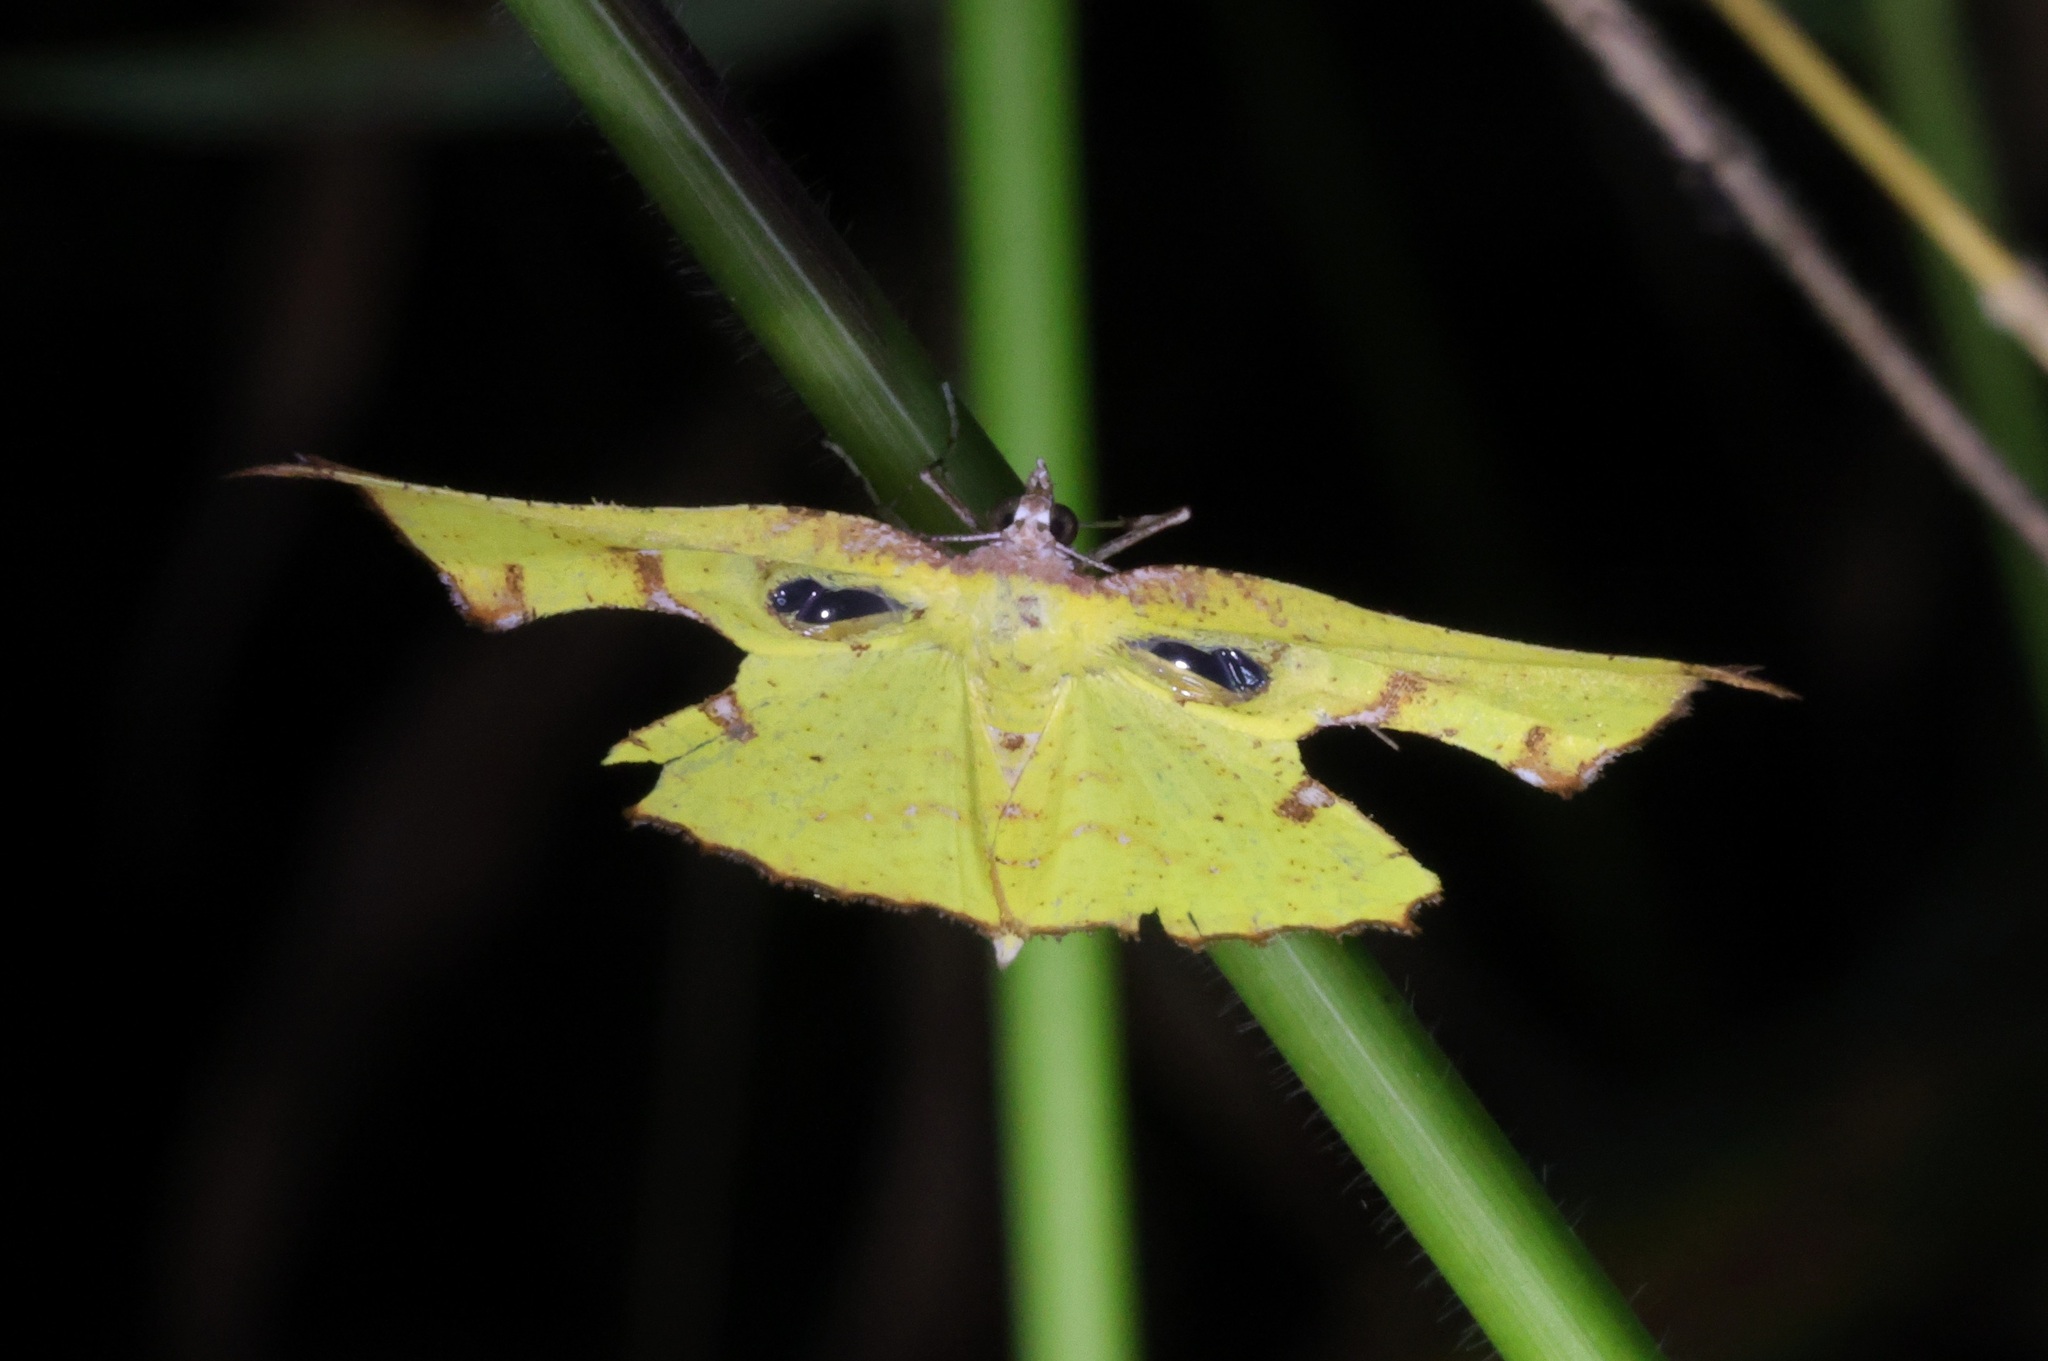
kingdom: Animalia
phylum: Arthropoda
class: Insecta
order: Lepidoptera
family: Geometridae
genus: Corymica
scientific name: Corymica spatiosa
